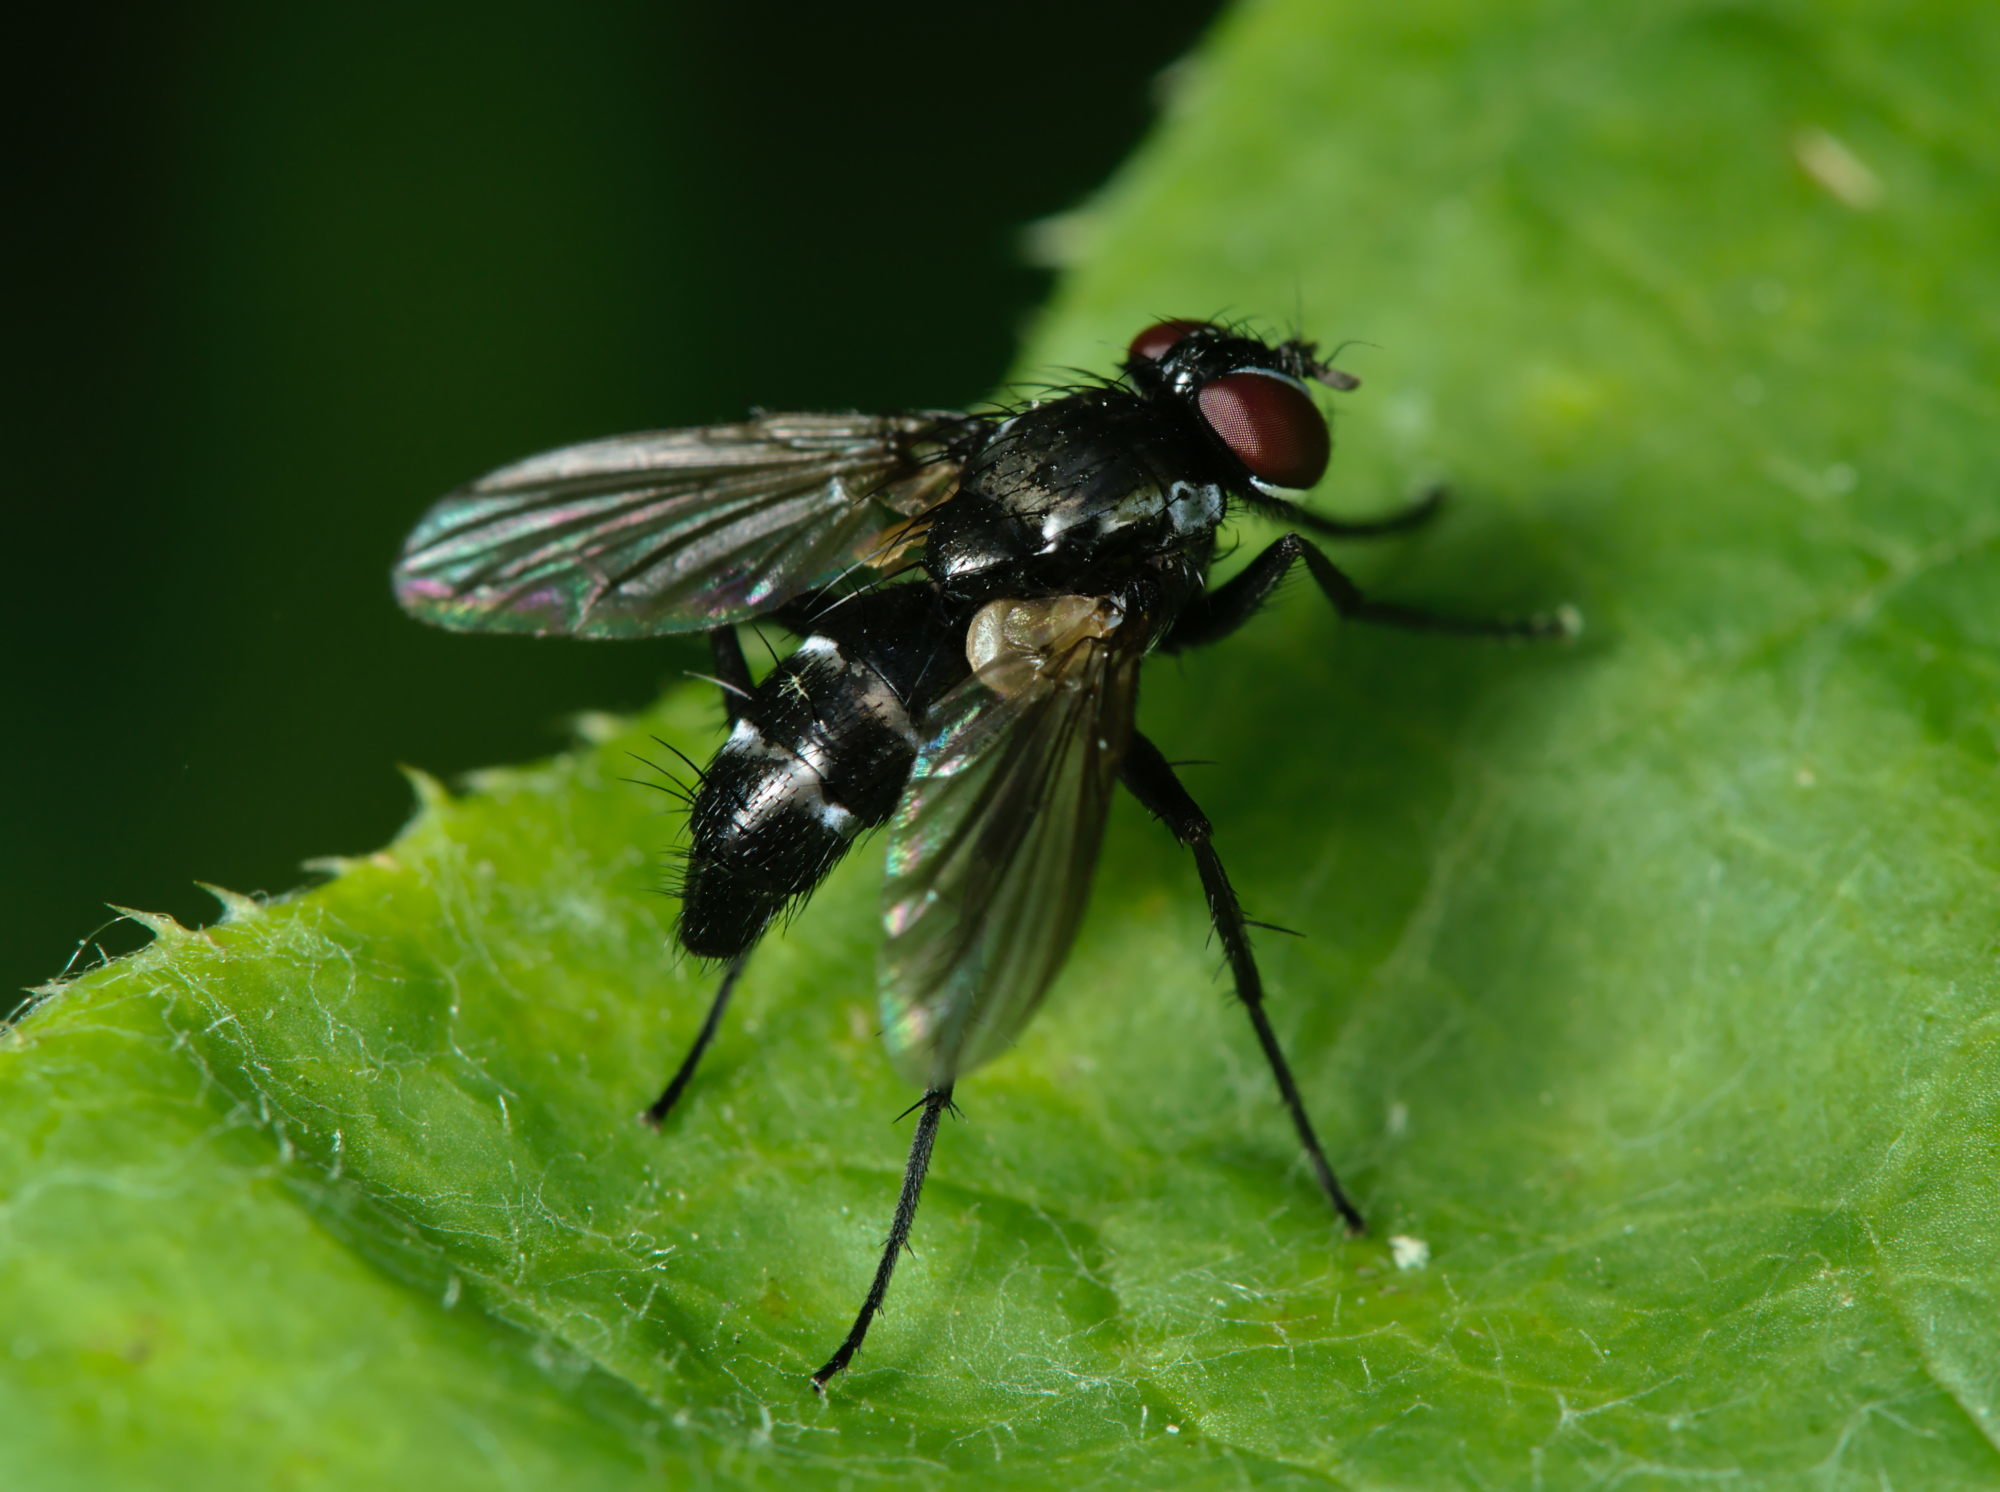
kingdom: Animalia
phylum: Arthropoda
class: Insecta
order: Diptera
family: Tachinidae
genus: Gastrolepta
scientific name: Gastrolepta anthracina
